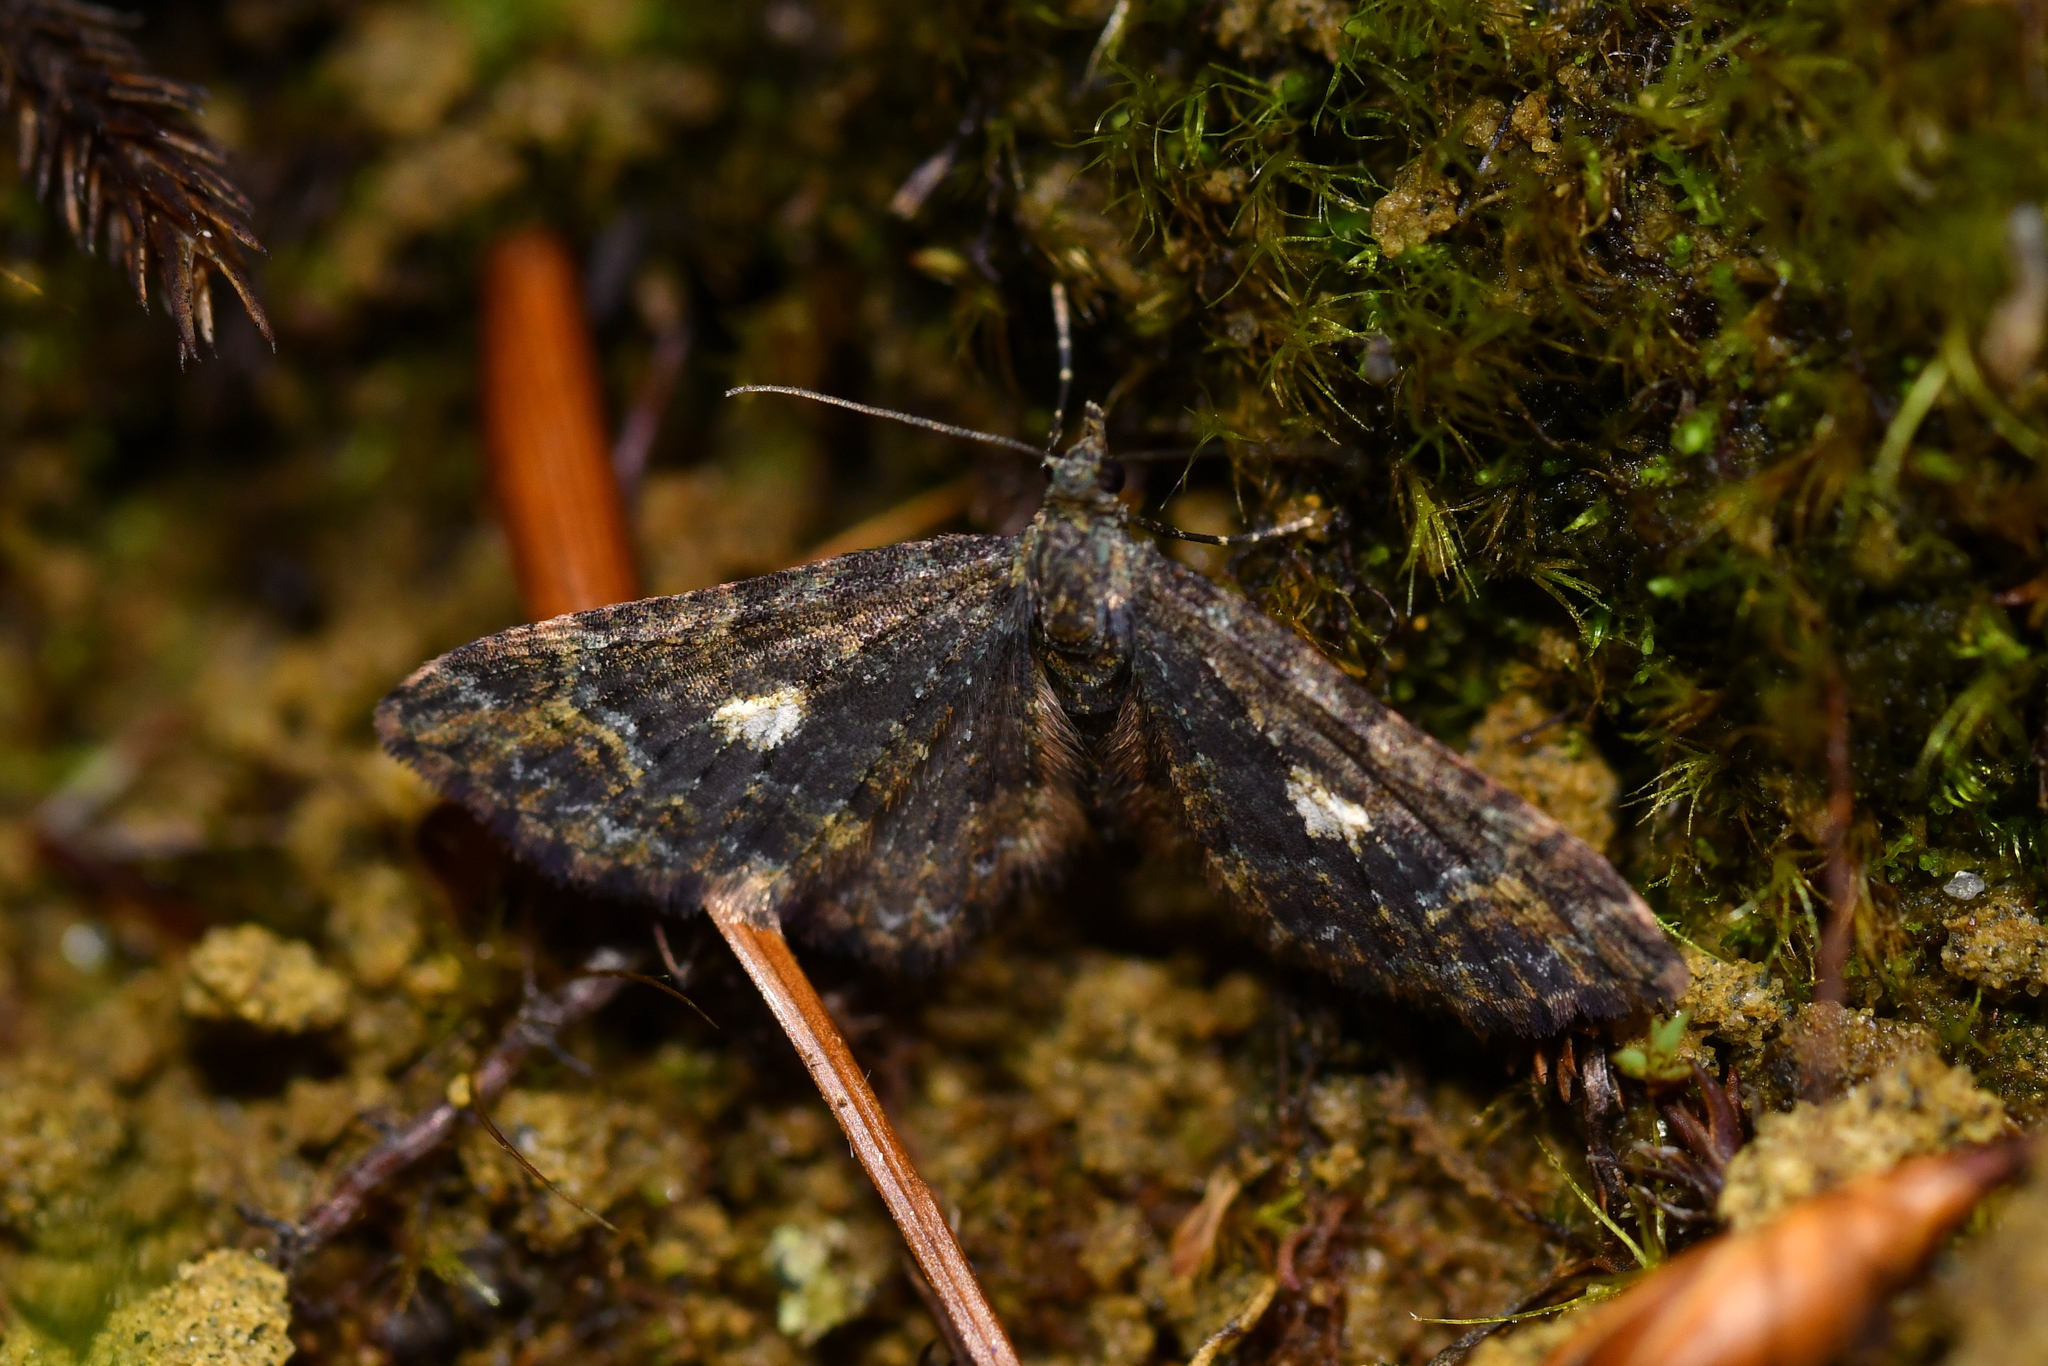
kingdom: Animalia
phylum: Arthropoda
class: Insecta
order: Lepidoptera
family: Geometridae
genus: Pasiphila
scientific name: Pasiphila lunata
